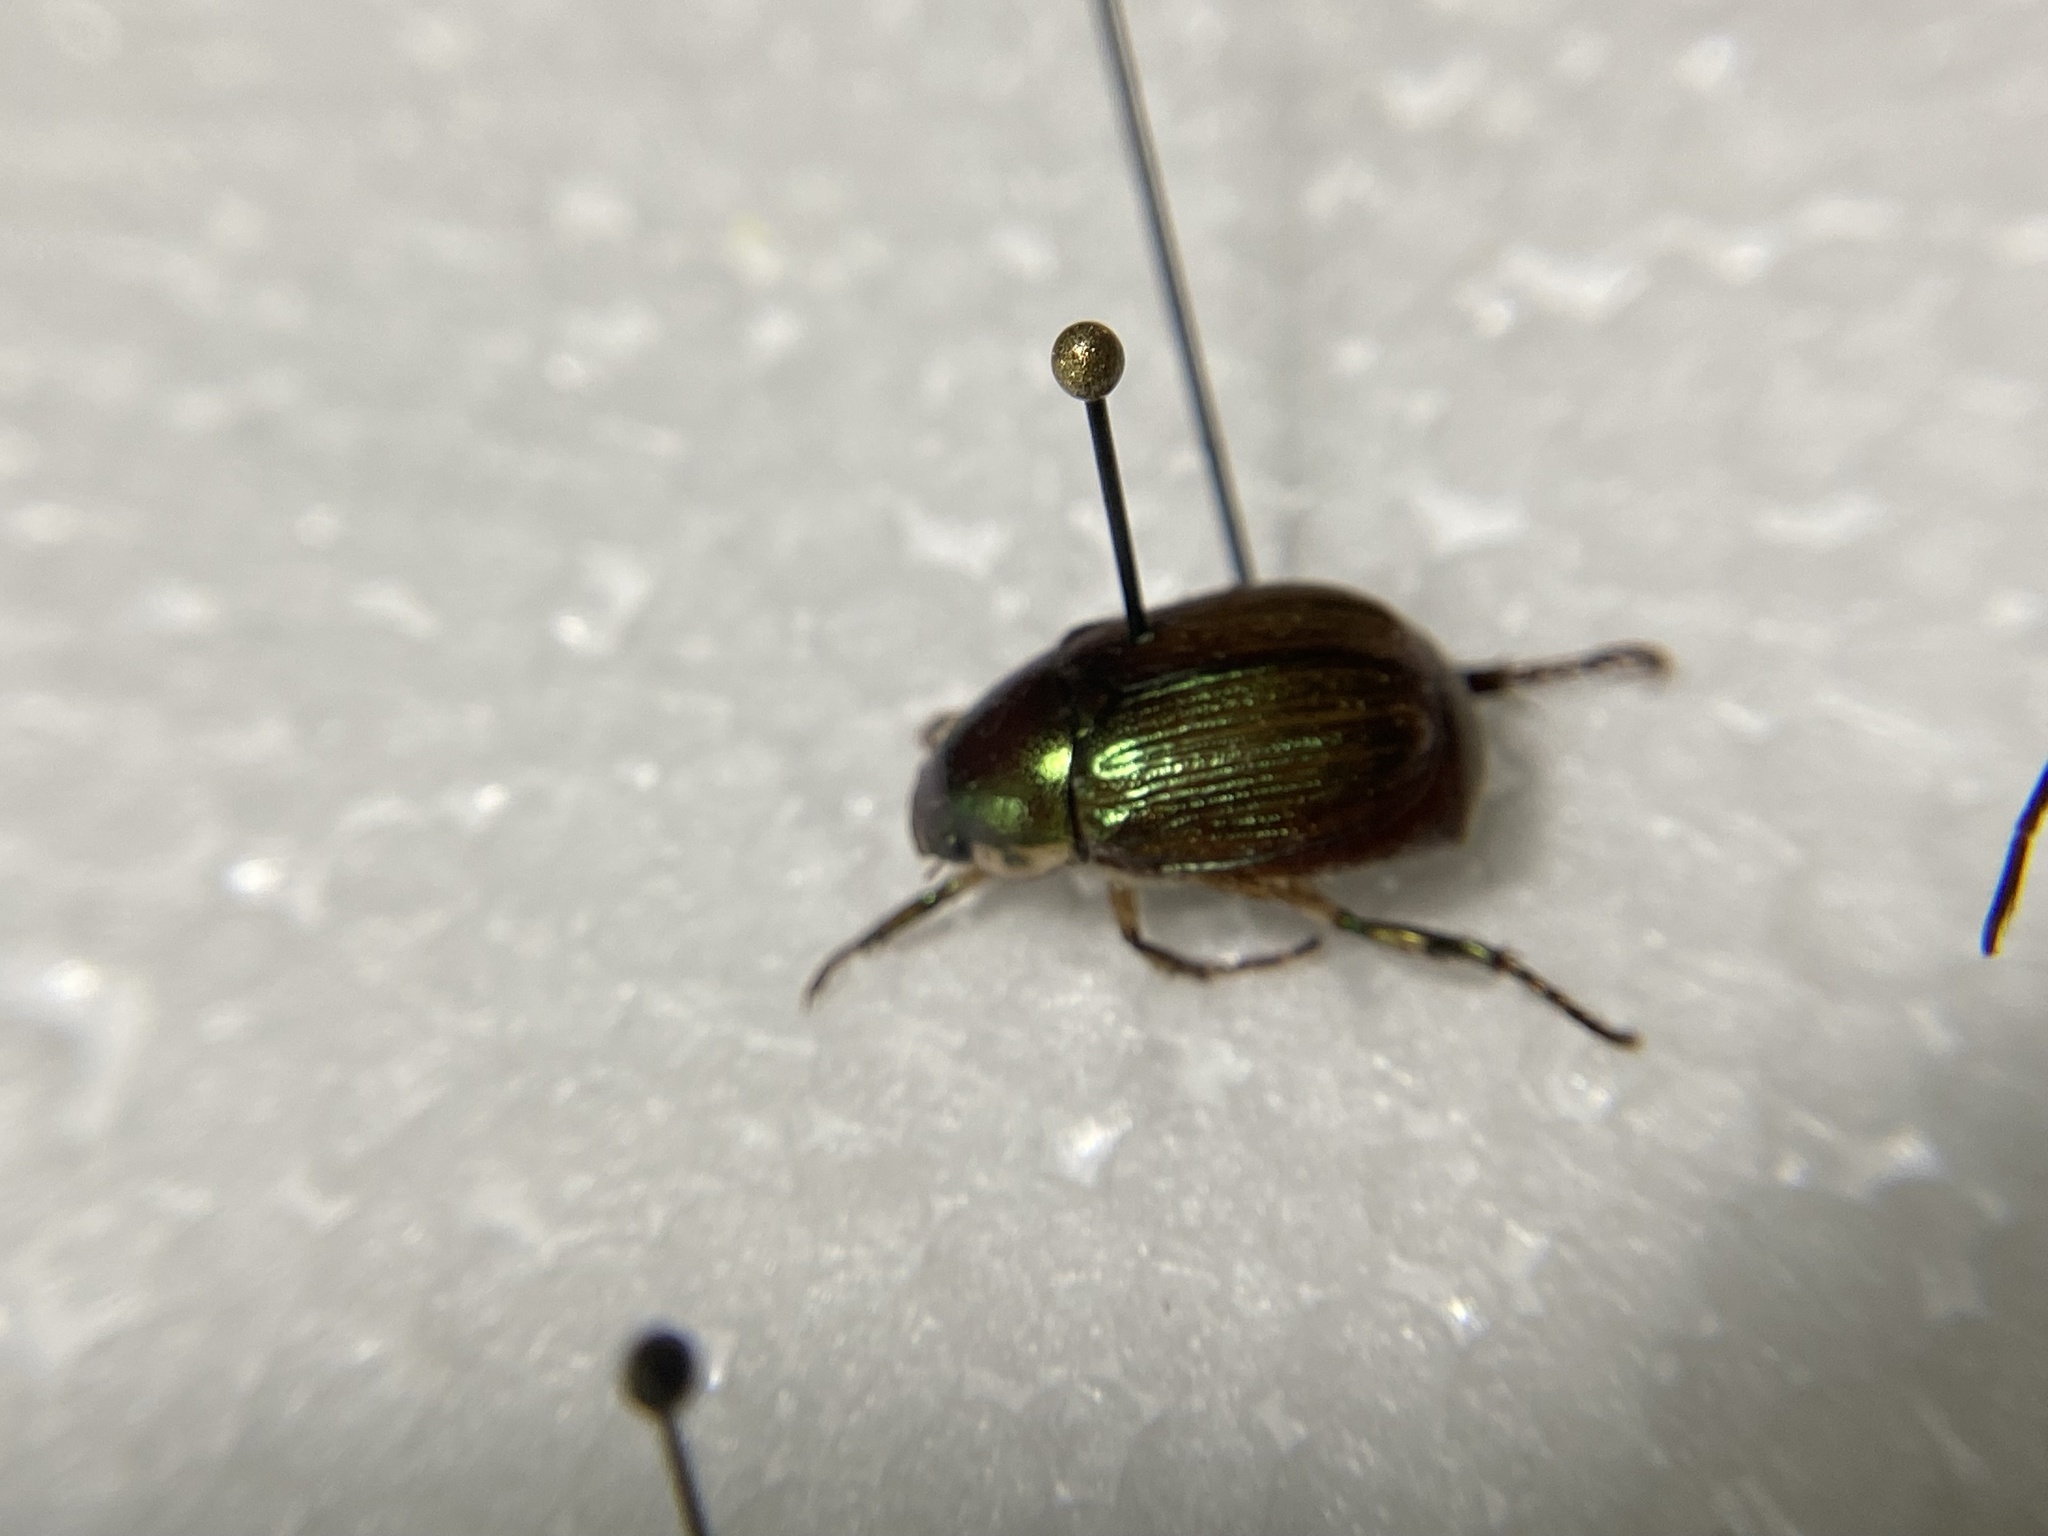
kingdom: Animalia
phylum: Arthropoda
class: Insecta
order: Coleoptera
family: Scarabaeidae
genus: Callistethus
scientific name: Callistethus marginatus
